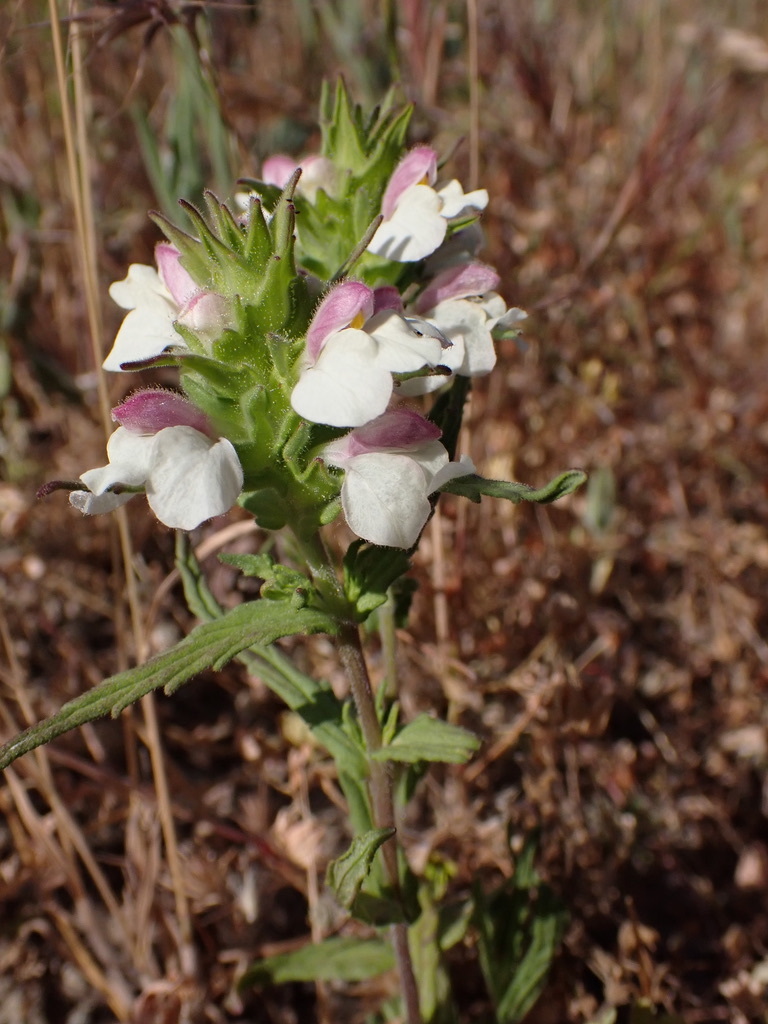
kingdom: Plantae
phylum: Tracheophyta
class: Magnoliopsida
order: Lamiales
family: Orobanchaceae
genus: Bellardia
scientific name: Bellardia trixago
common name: Mediterranean lineseed
